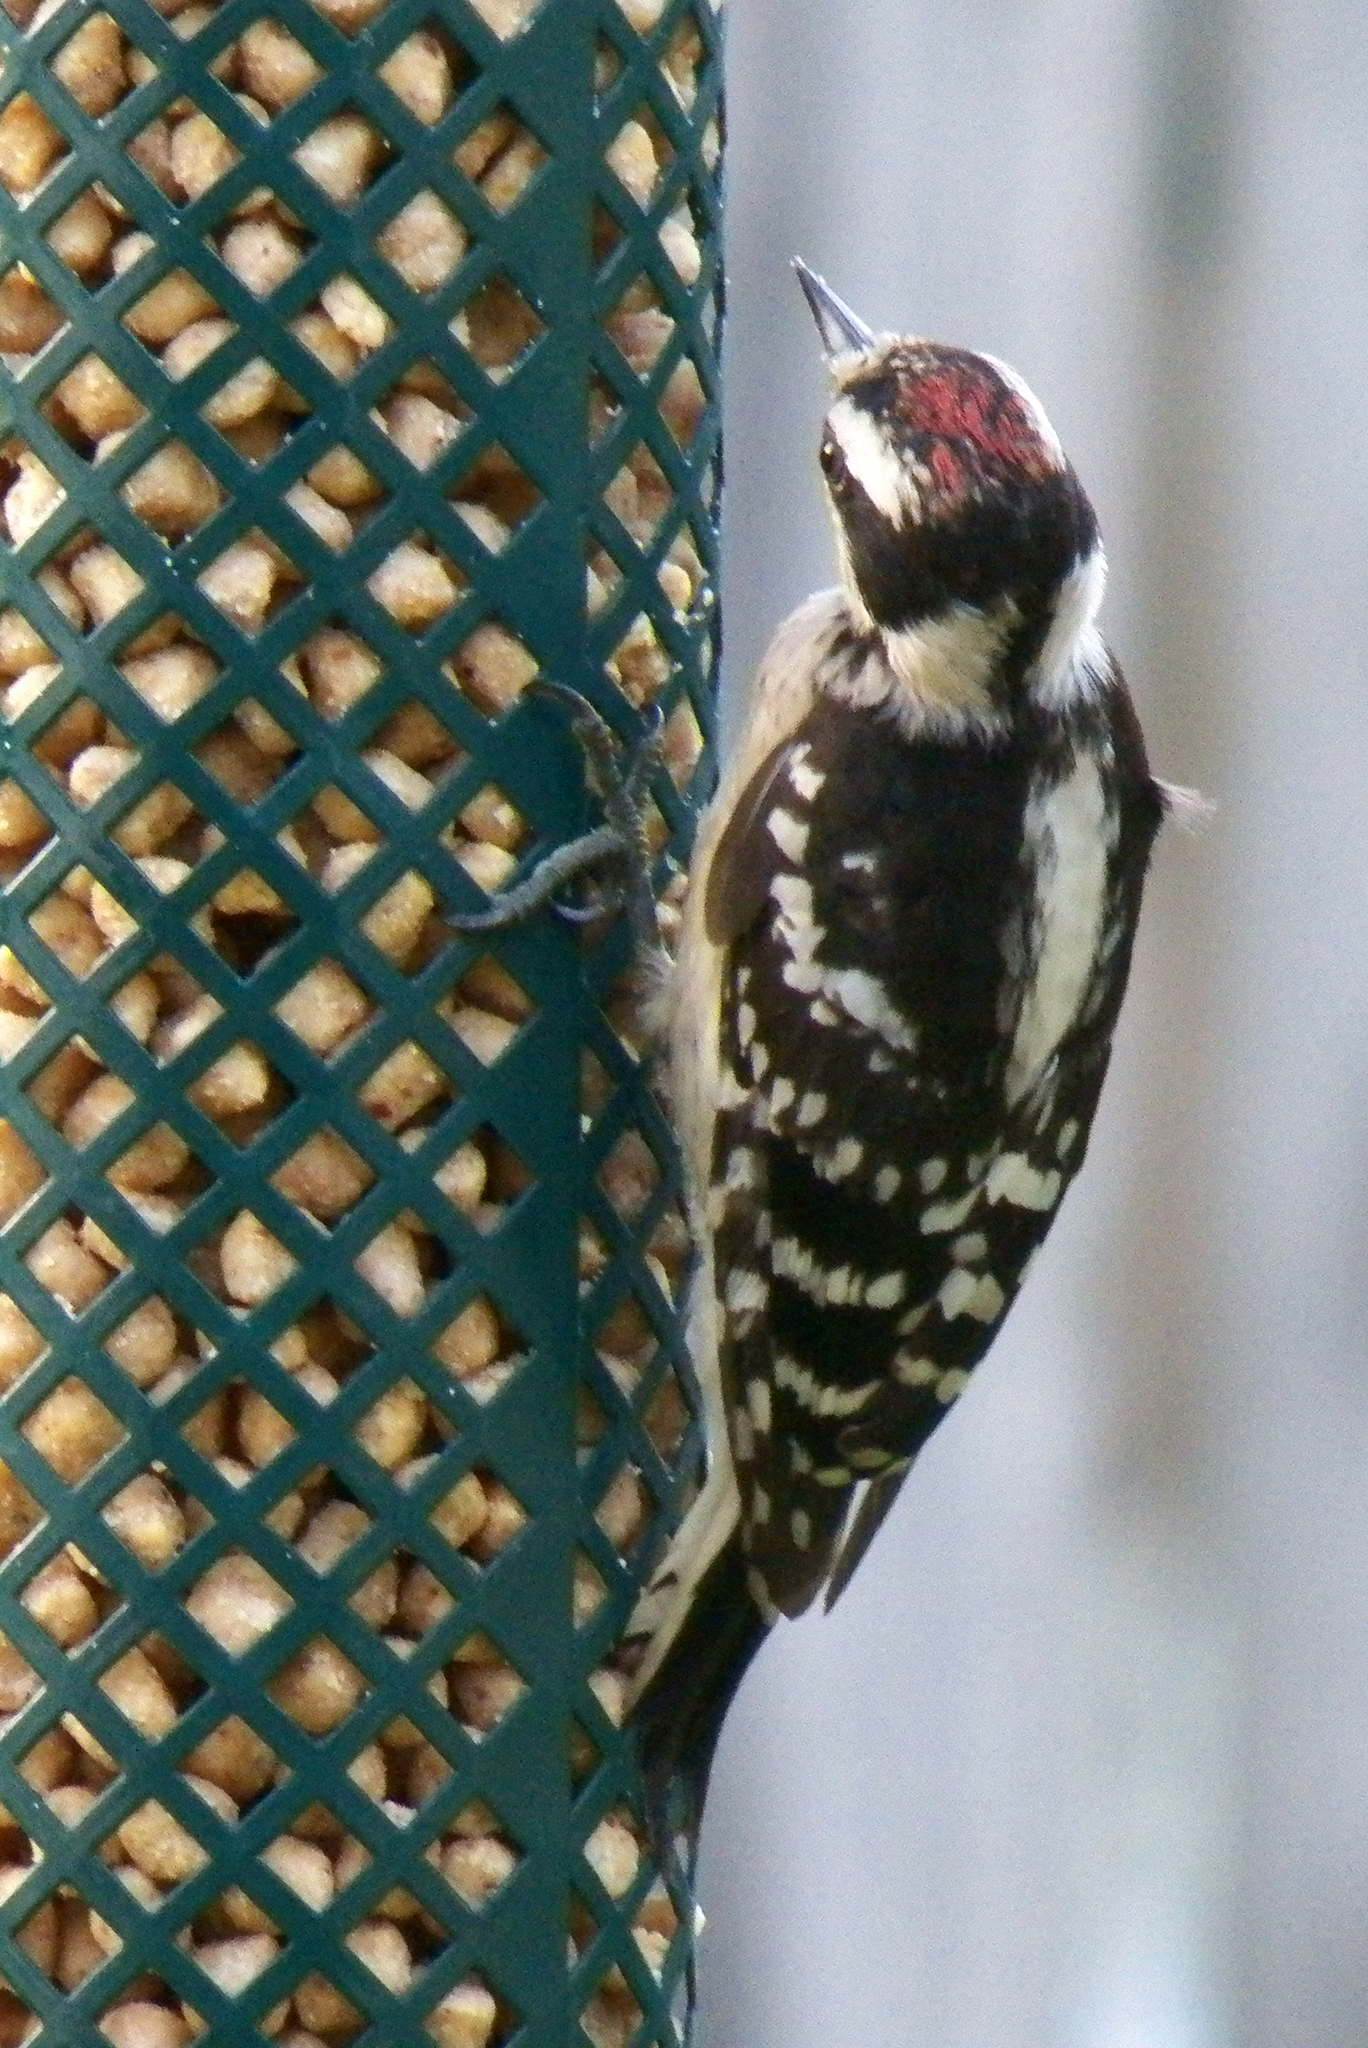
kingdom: Animalia
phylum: Chordata
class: Aves
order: Piciformes
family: Picidae
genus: Dryobates
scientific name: Dryobates pubescens
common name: Downy woodpecker
